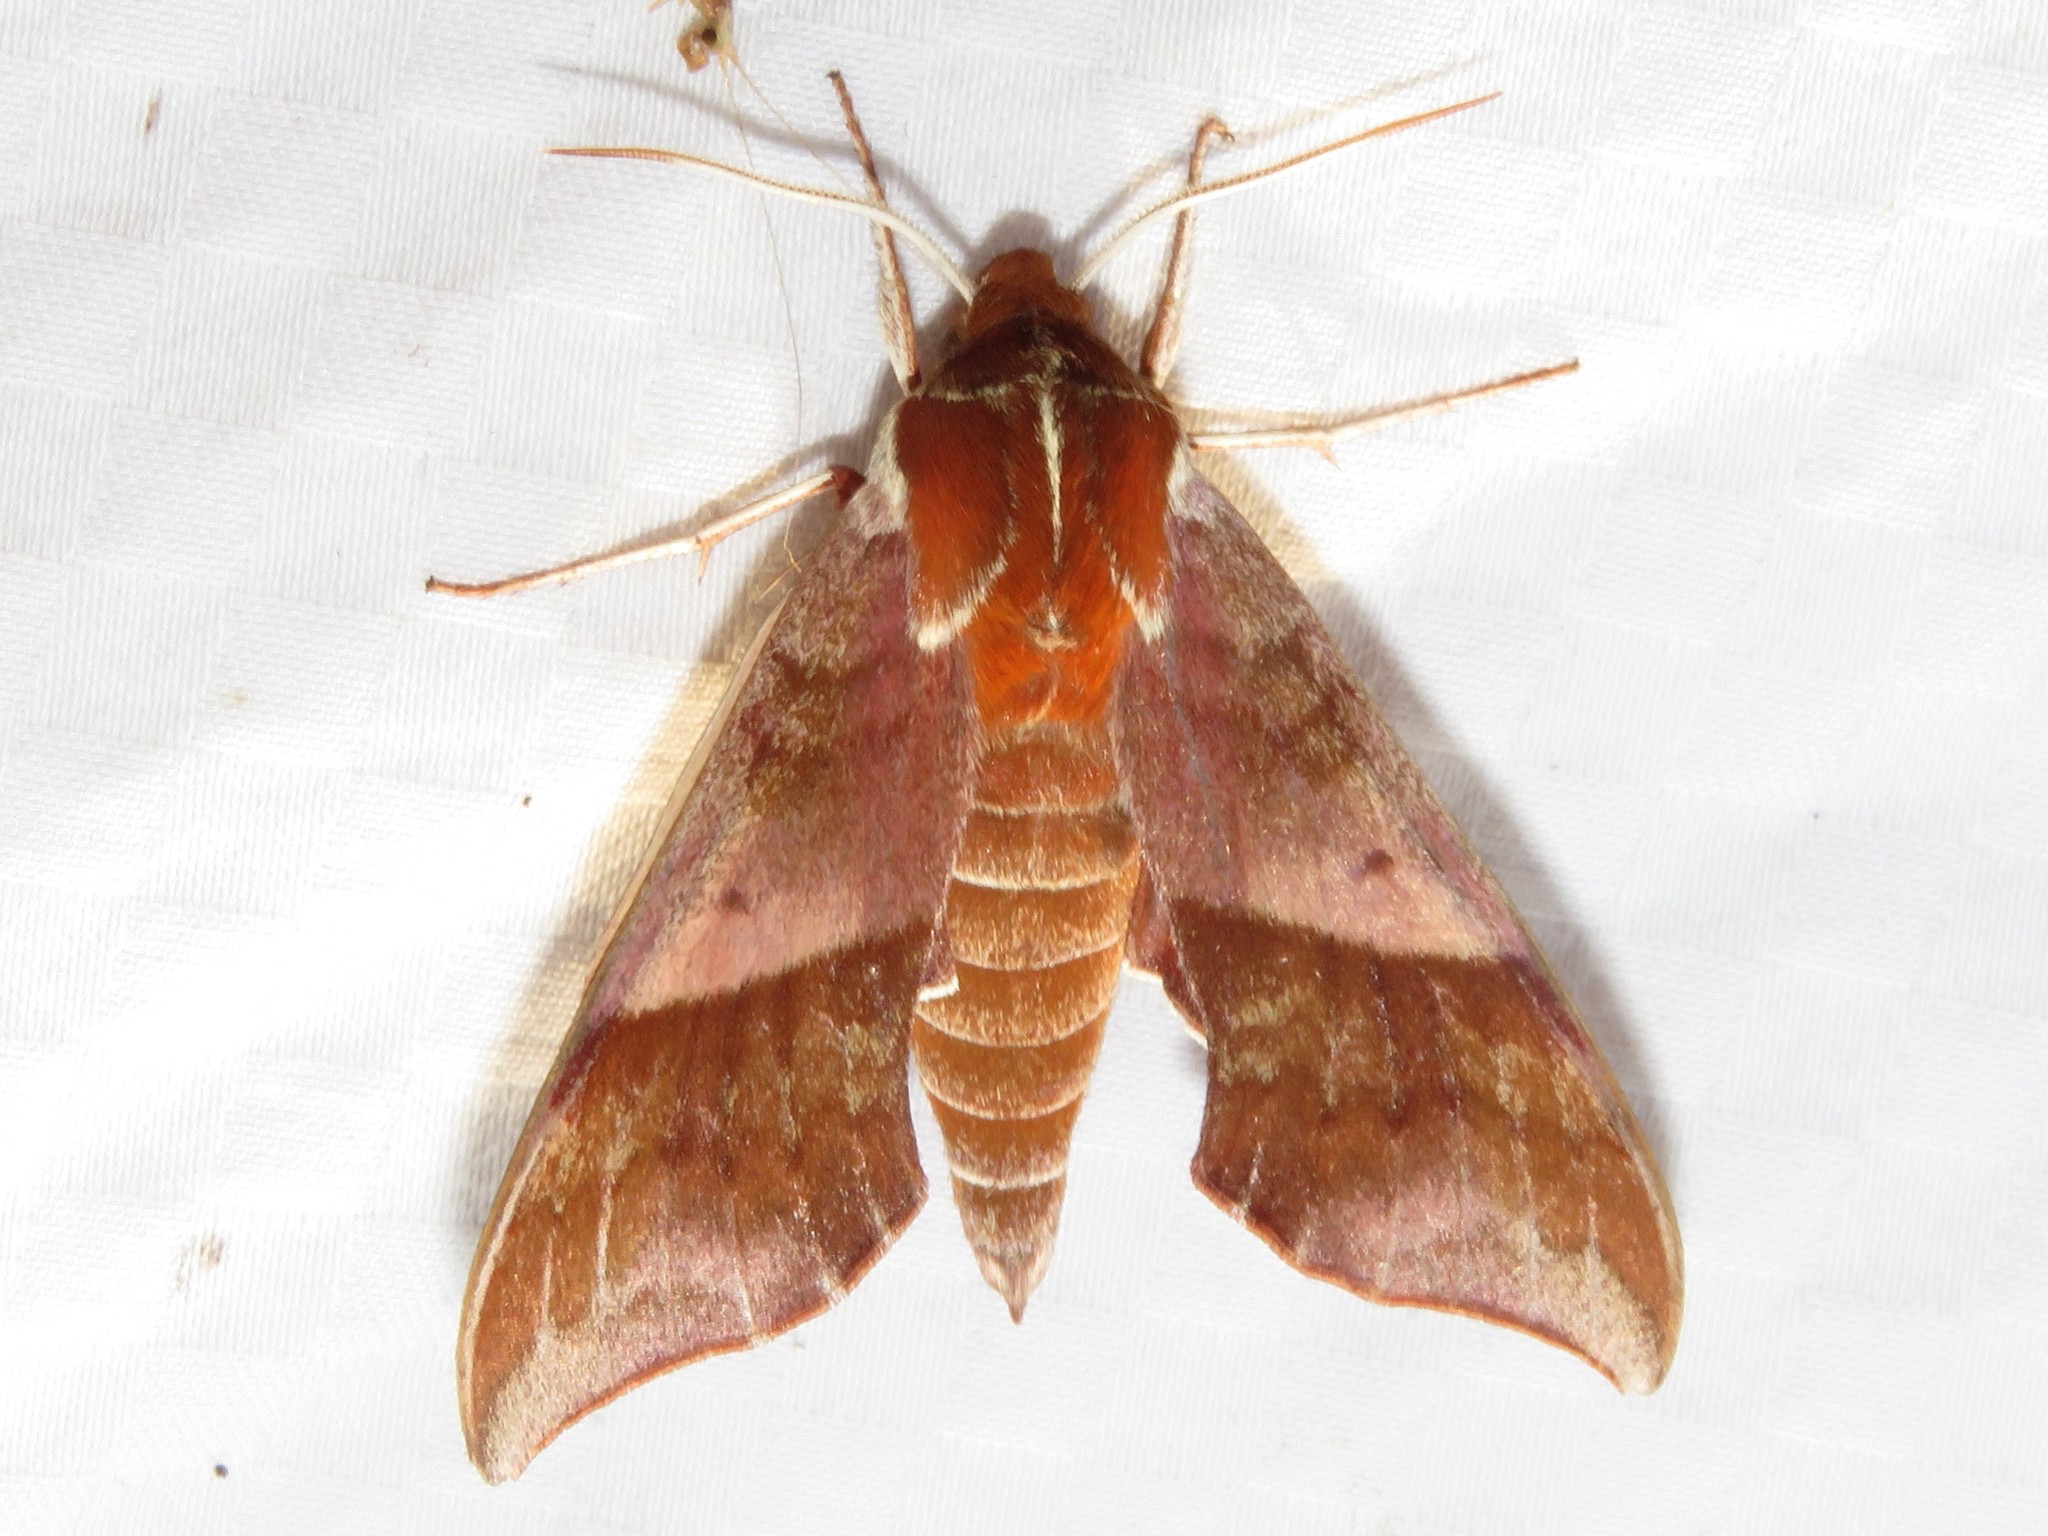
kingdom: Animalia
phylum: Arthropoda
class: Insecta
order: Lepidoptera
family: Sphingidae
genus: Darapsa
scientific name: Darapsa choerilus
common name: Azalea sphinx
